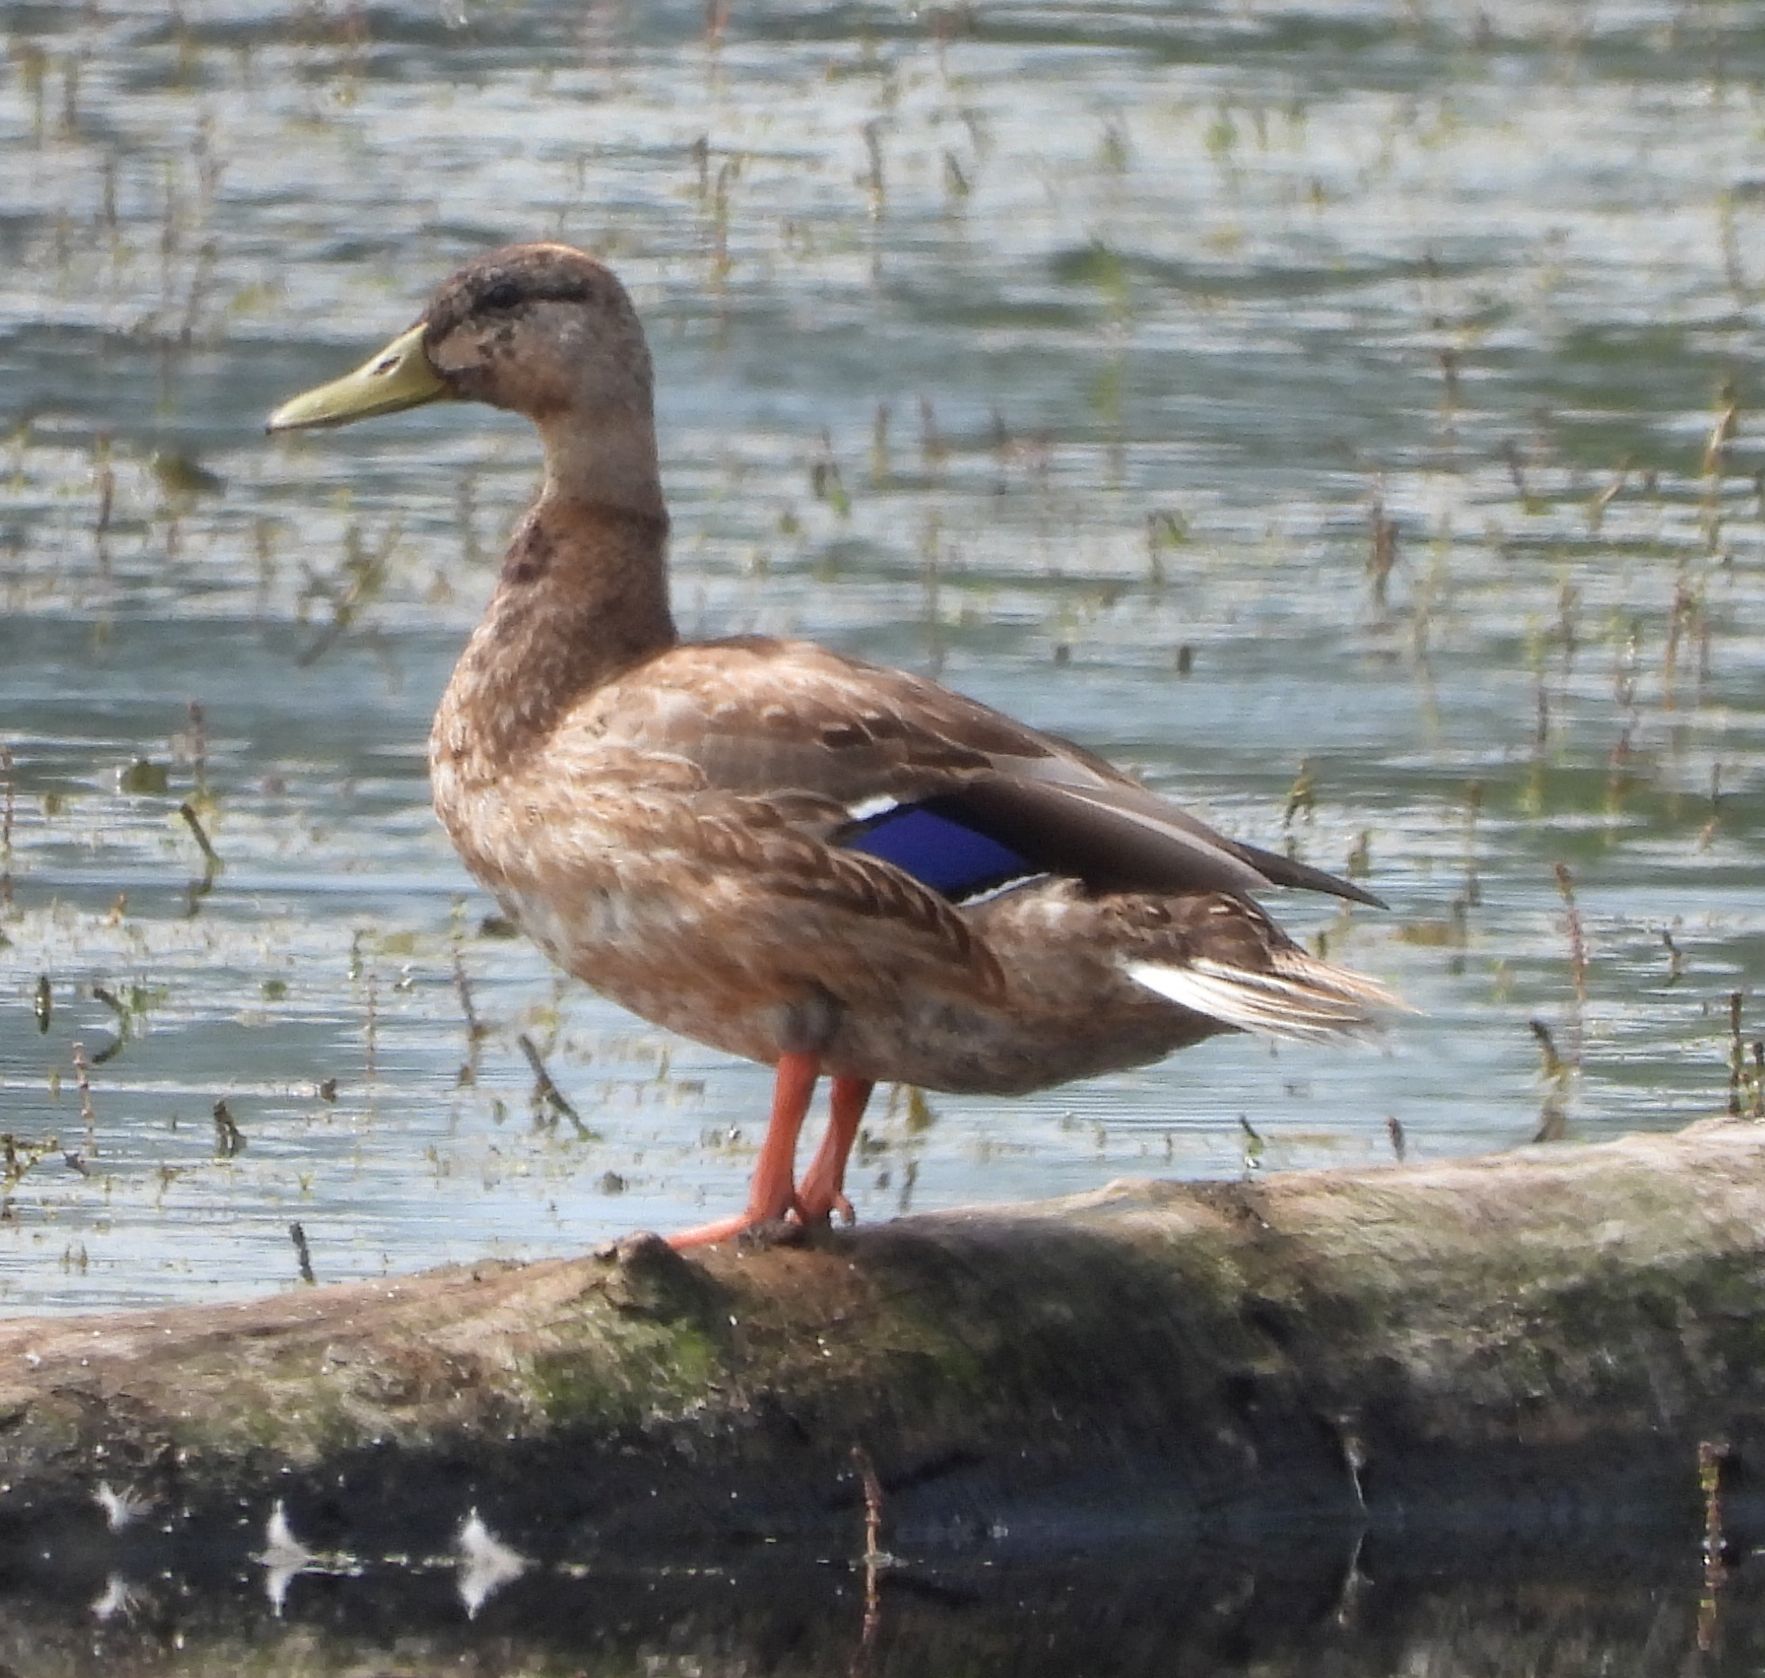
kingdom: Animalia
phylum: Chordata
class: Aves
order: Anseriformes
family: Anatidae
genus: Anas
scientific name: Anas platyrhynchos
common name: Mallard
